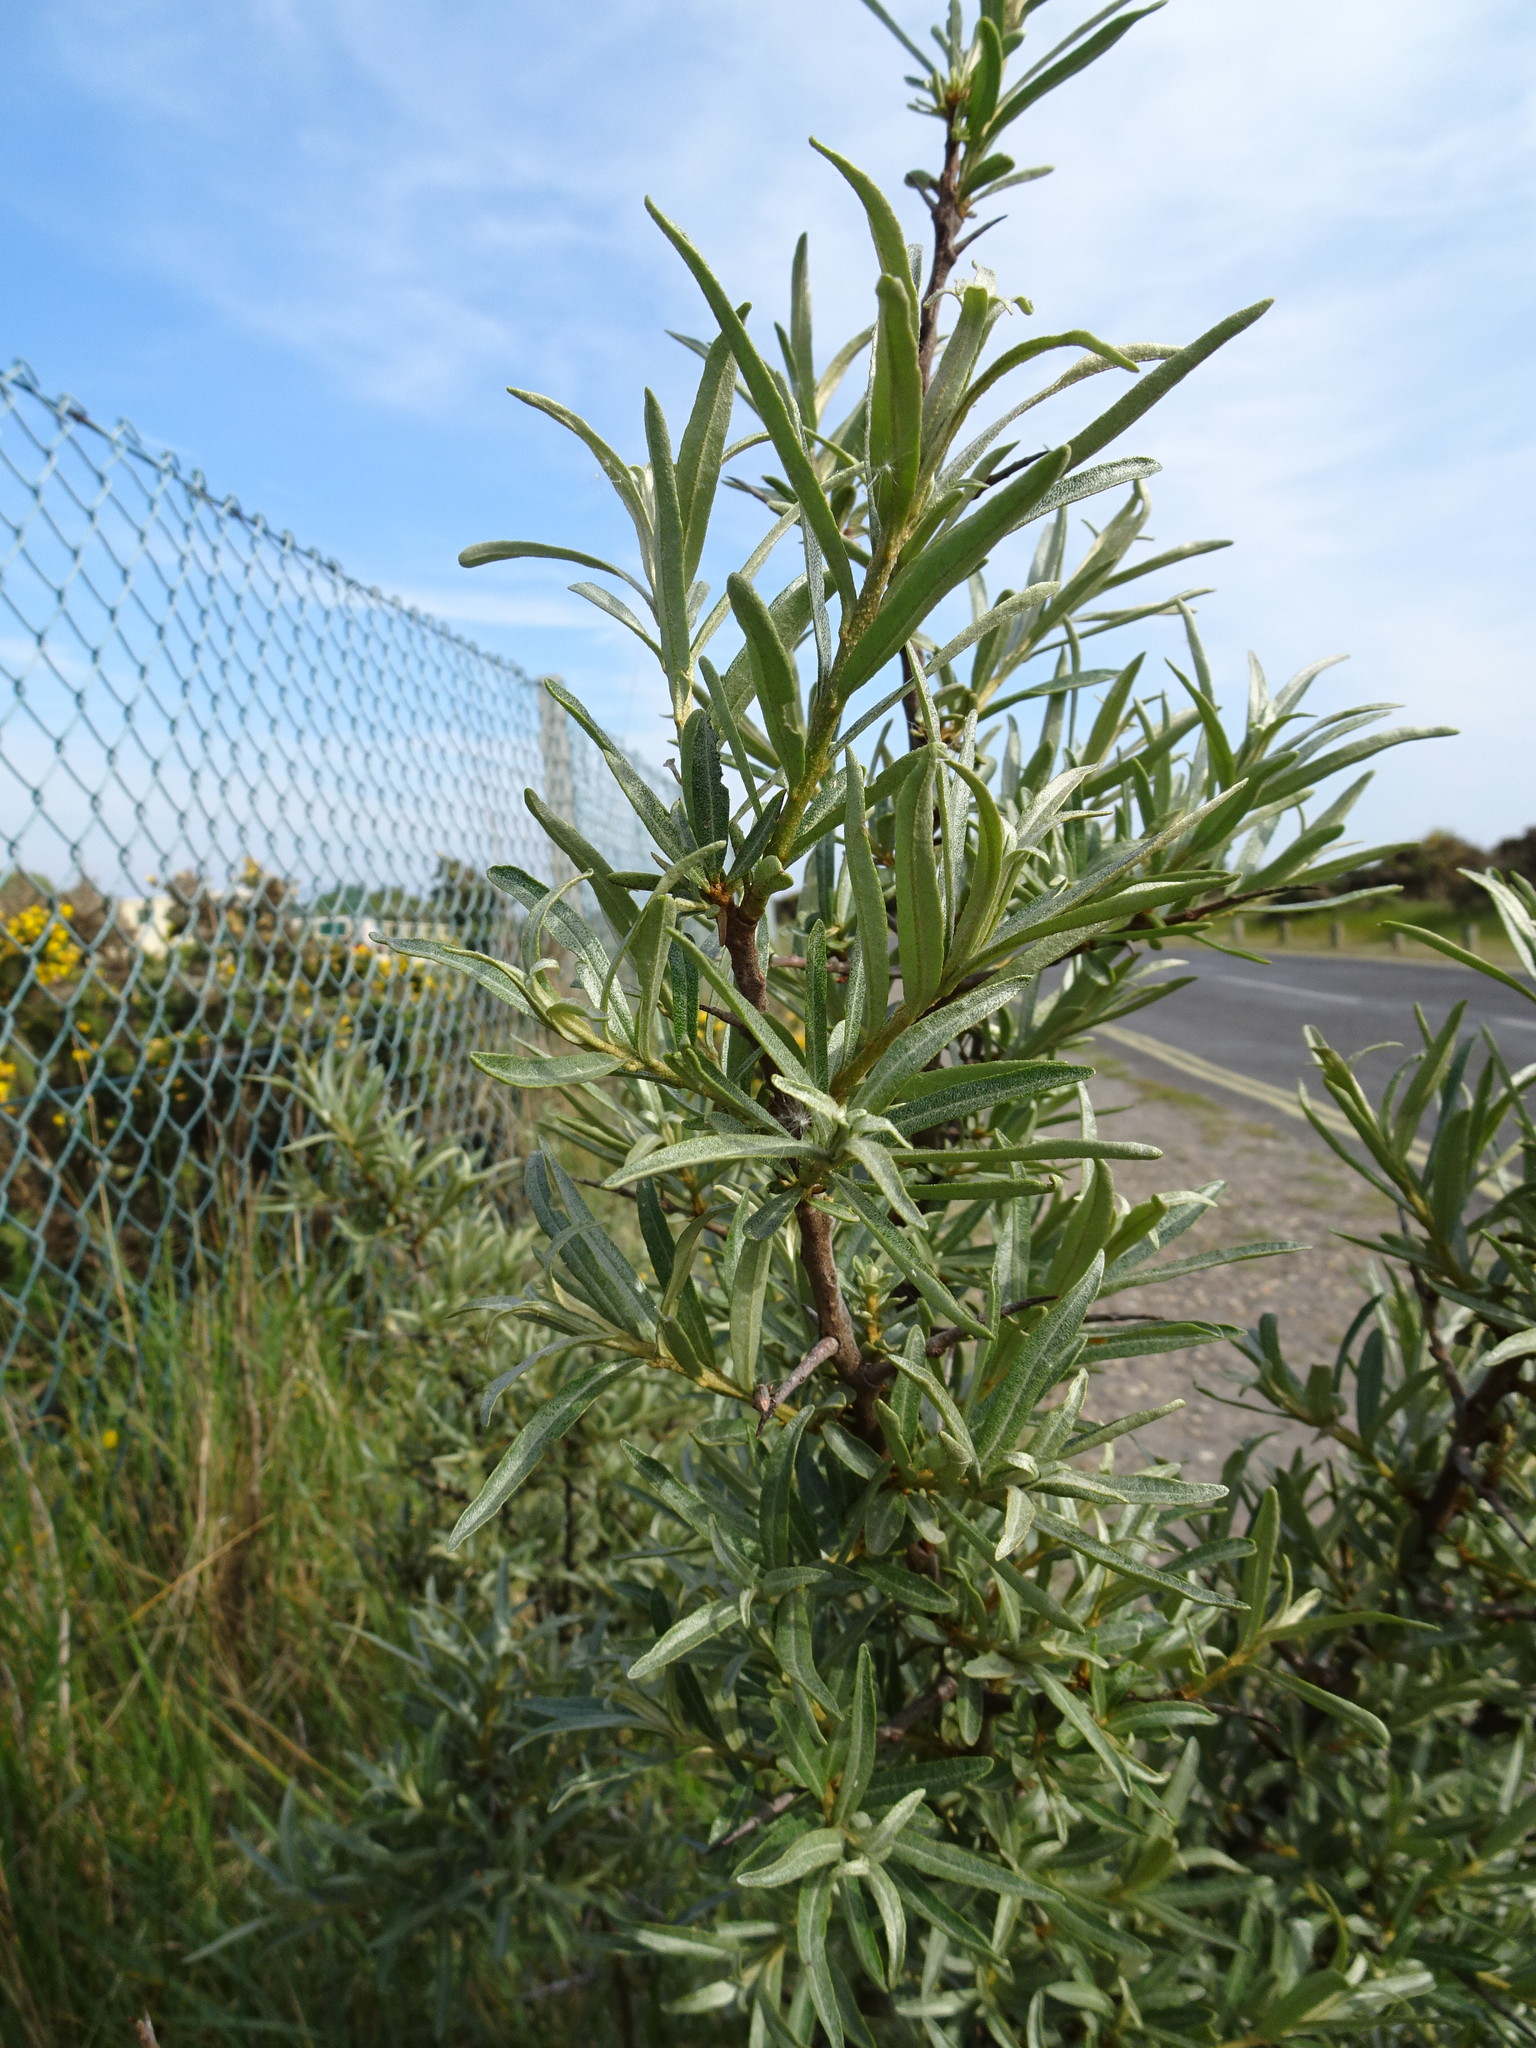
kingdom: Plantae
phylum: Tracheophyta
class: Magnoliopsida
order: Rosales
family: Elaeagnaceae
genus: Hippophae
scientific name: Hippophae rhamnoides
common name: Sea-buckthorn
